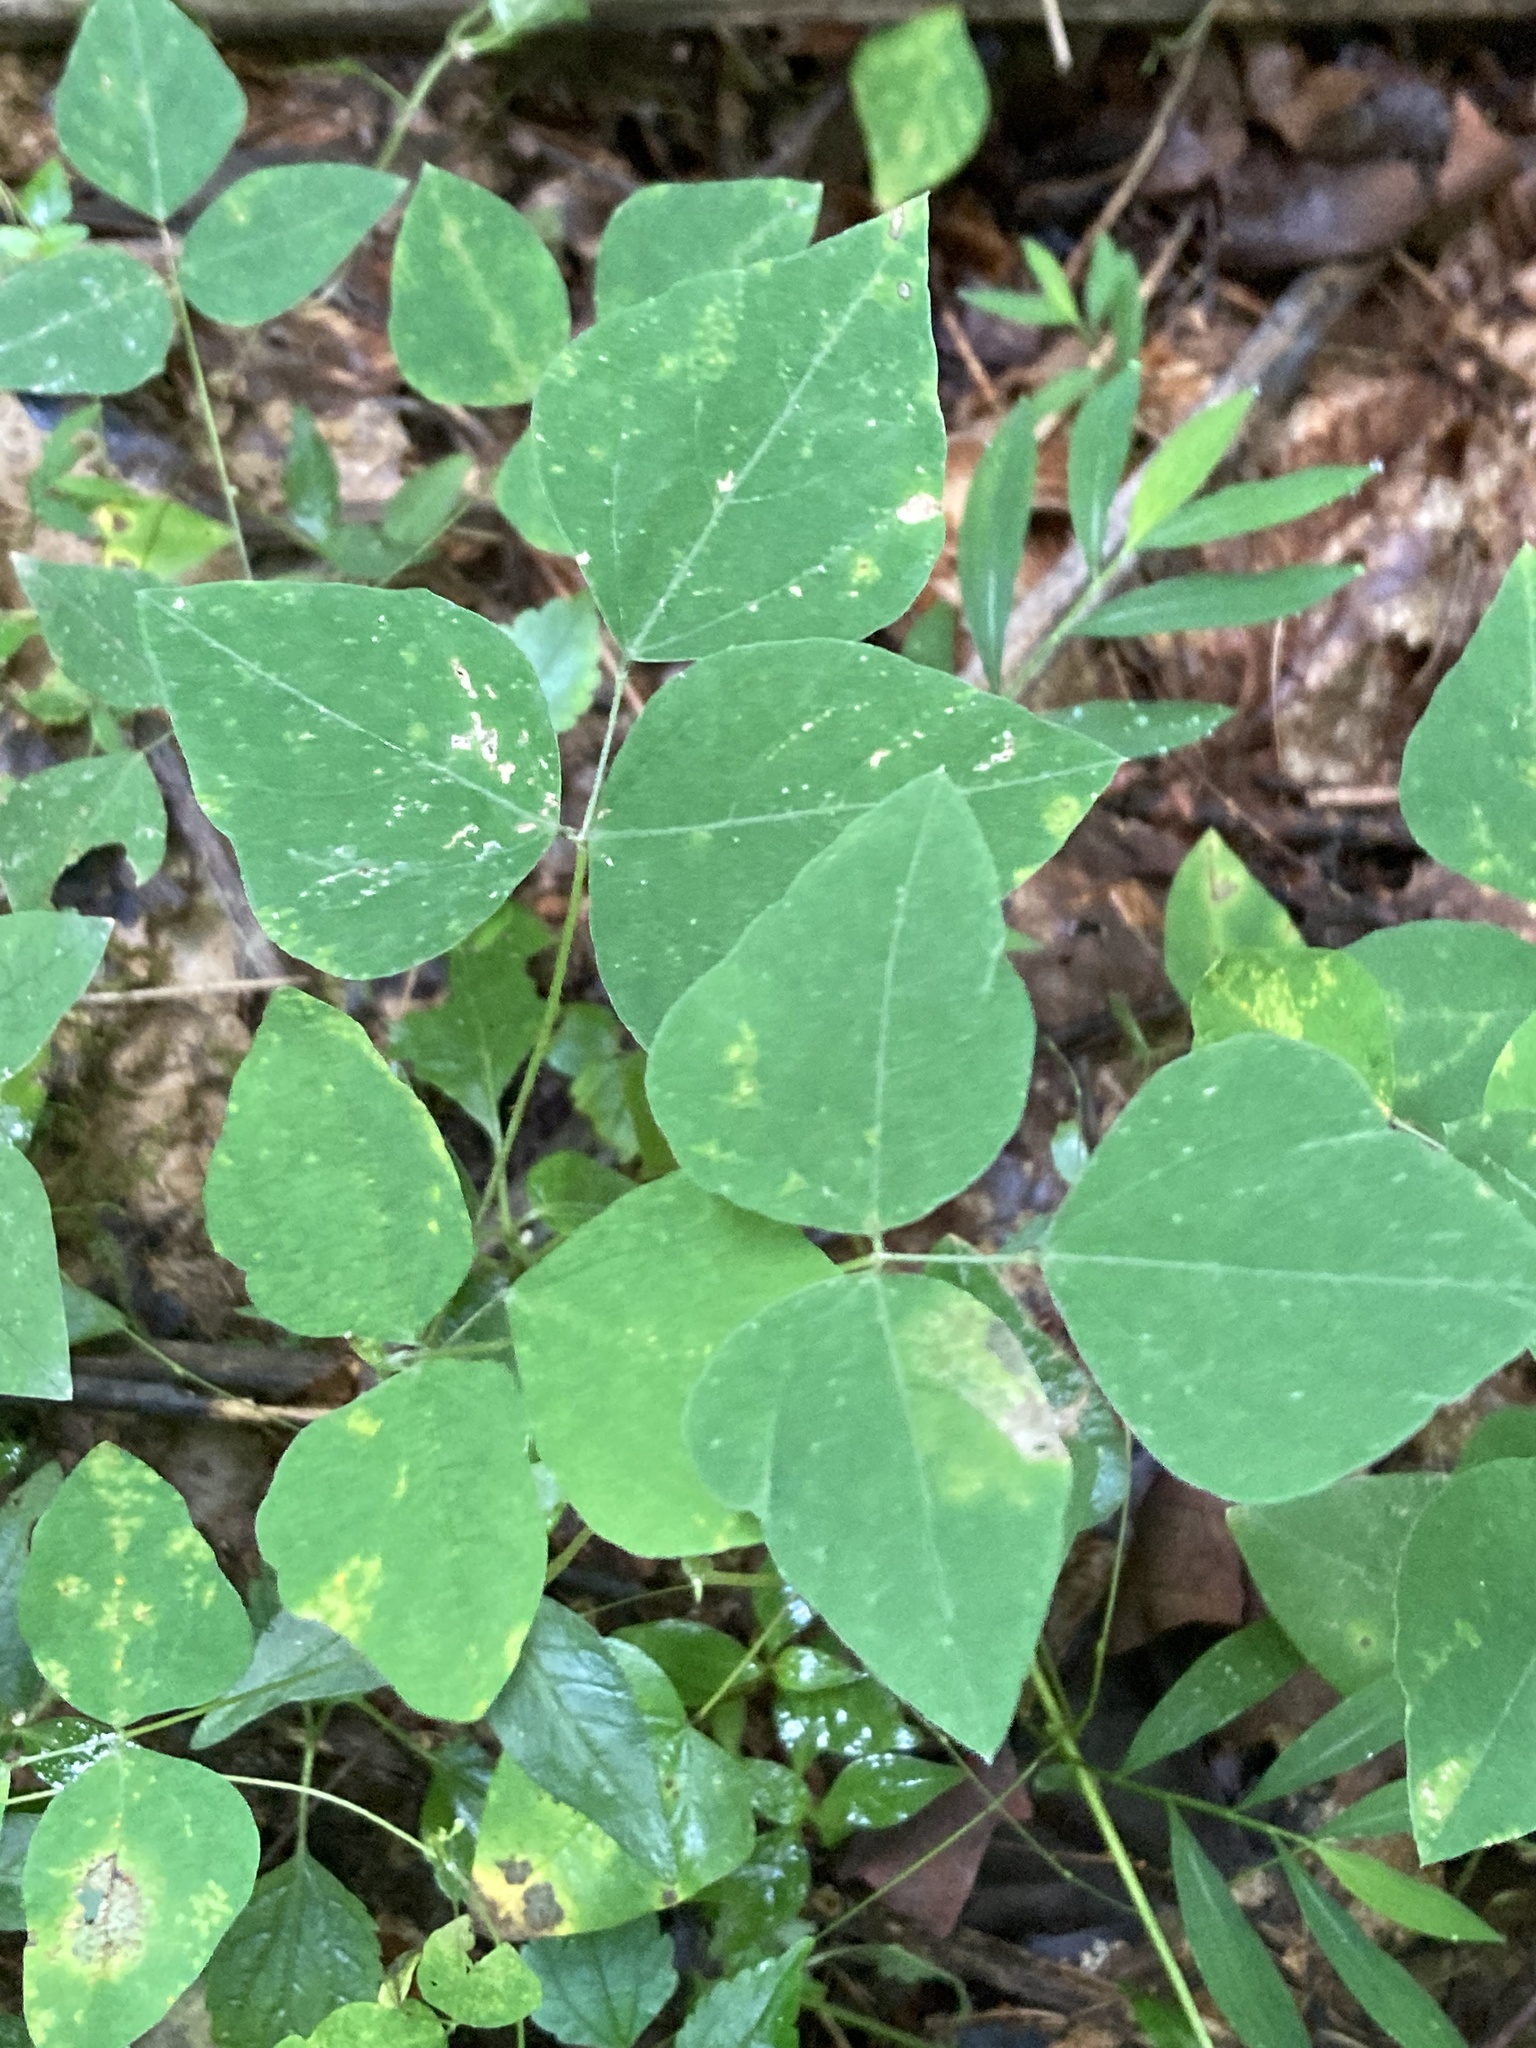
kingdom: Plantae
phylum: Tracheophyta
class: Magnoliopsida
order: Fabales
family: Fabaceae
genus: Amphicarpaea
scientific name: Amphicarpaea bracteata
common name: American hog peanut
